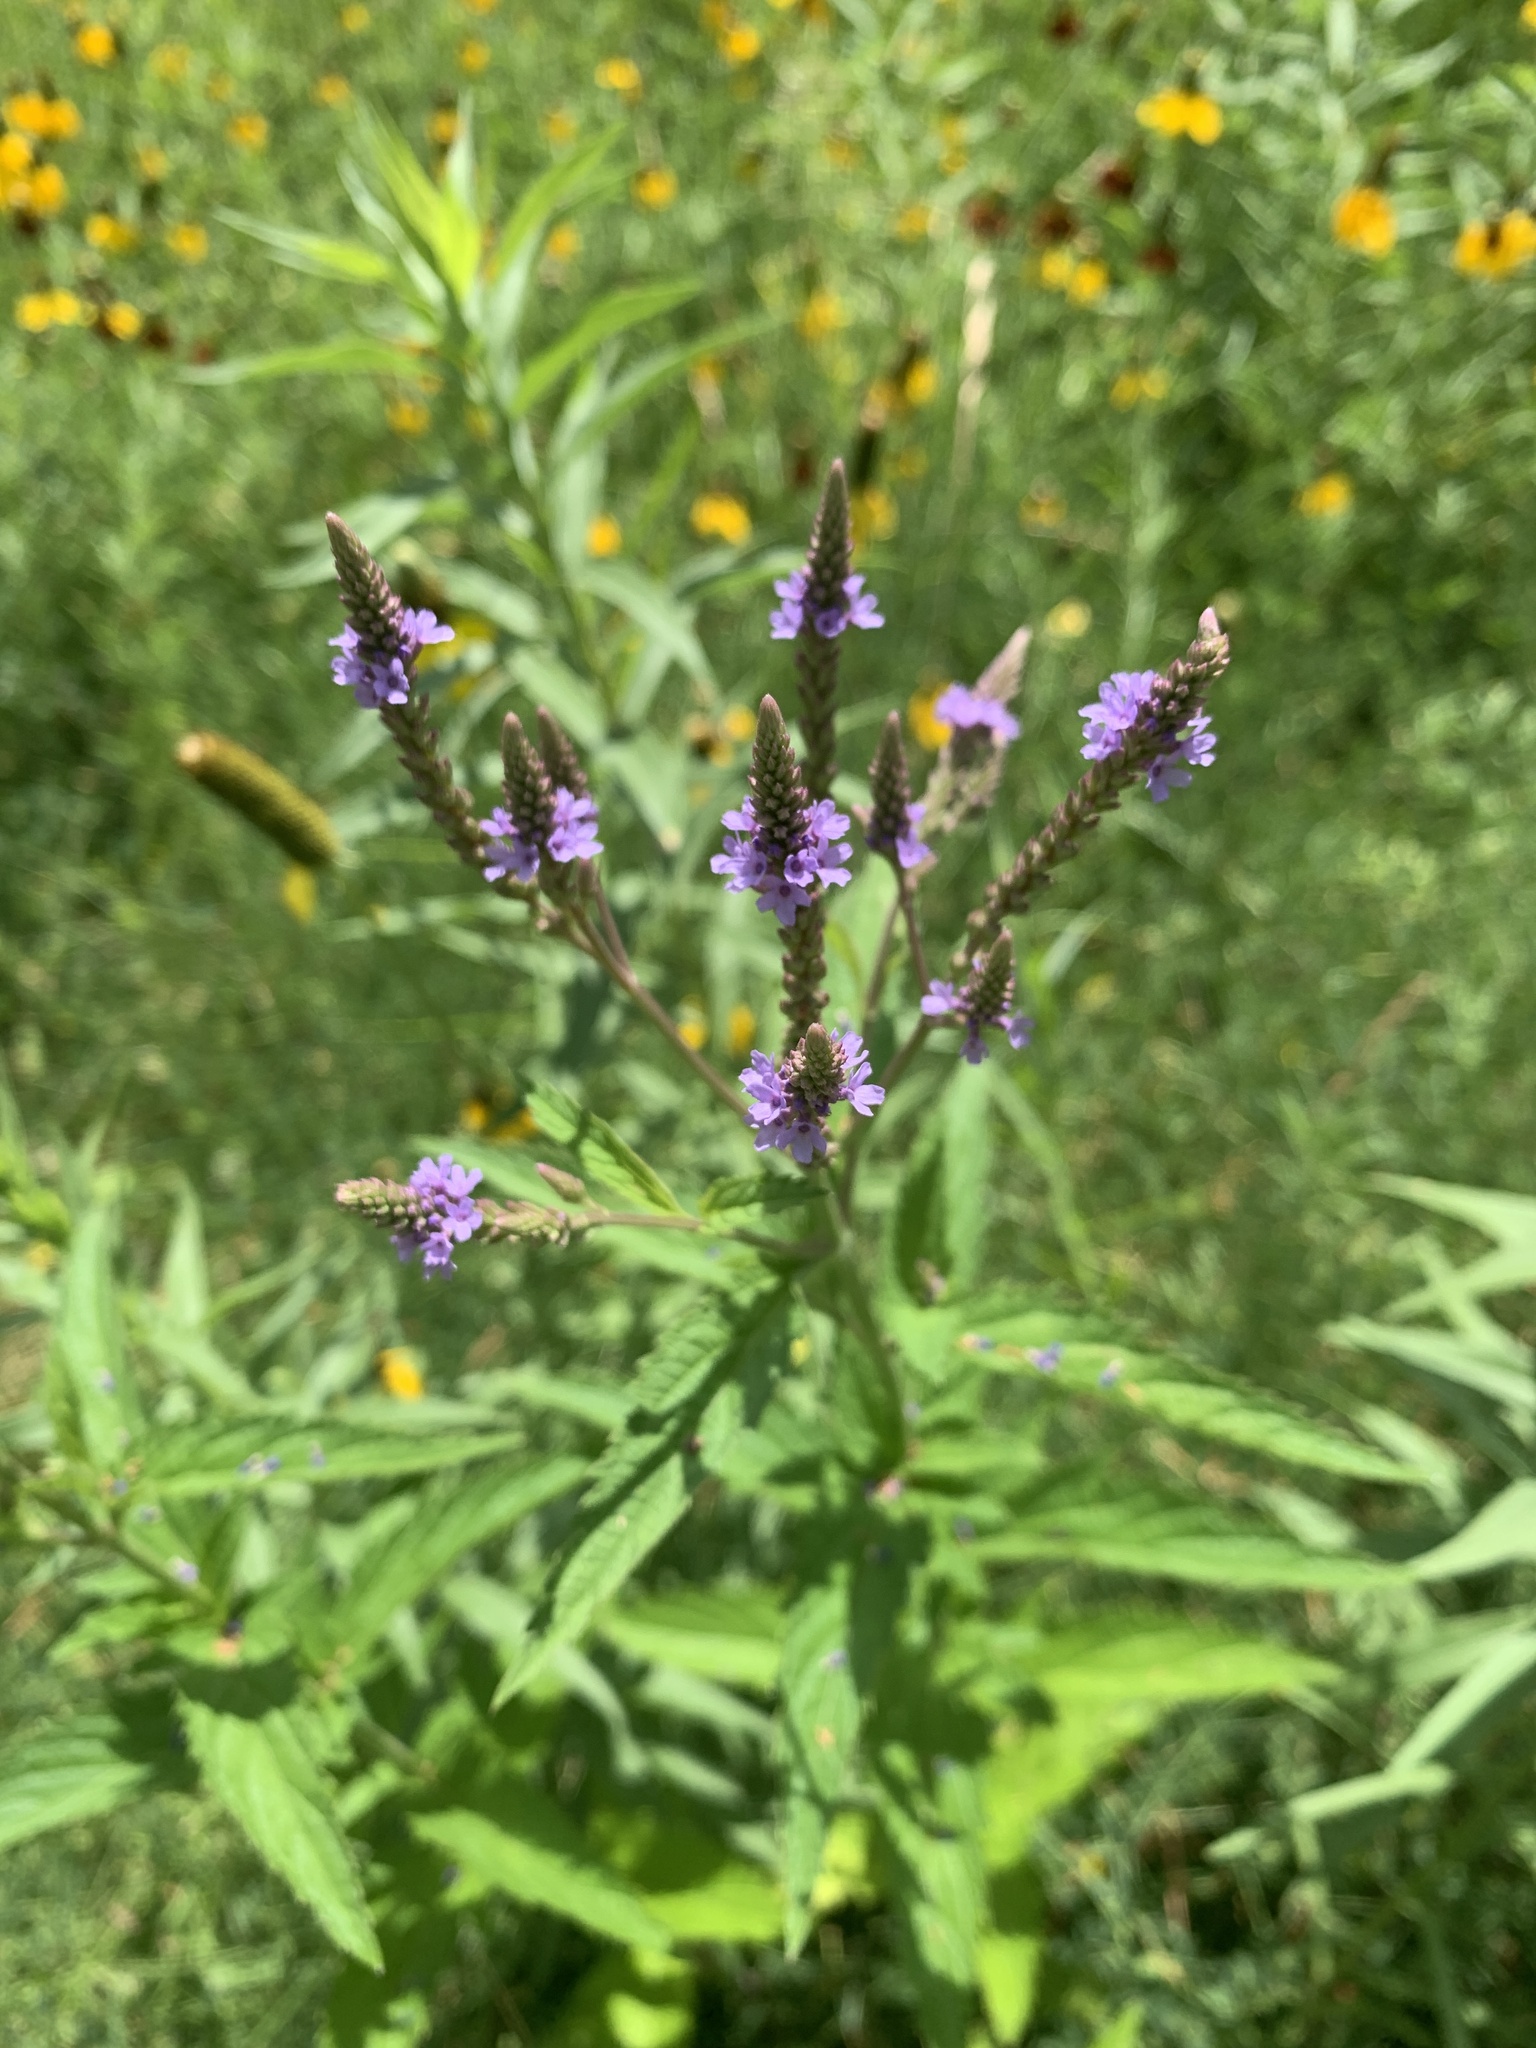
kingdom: Plantae
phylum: Tracheophyta
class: Magnoliopsida
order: Lamiales
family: Verbenaceae
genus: Verbena
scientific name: Verbena hastata
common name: American blue vervain
